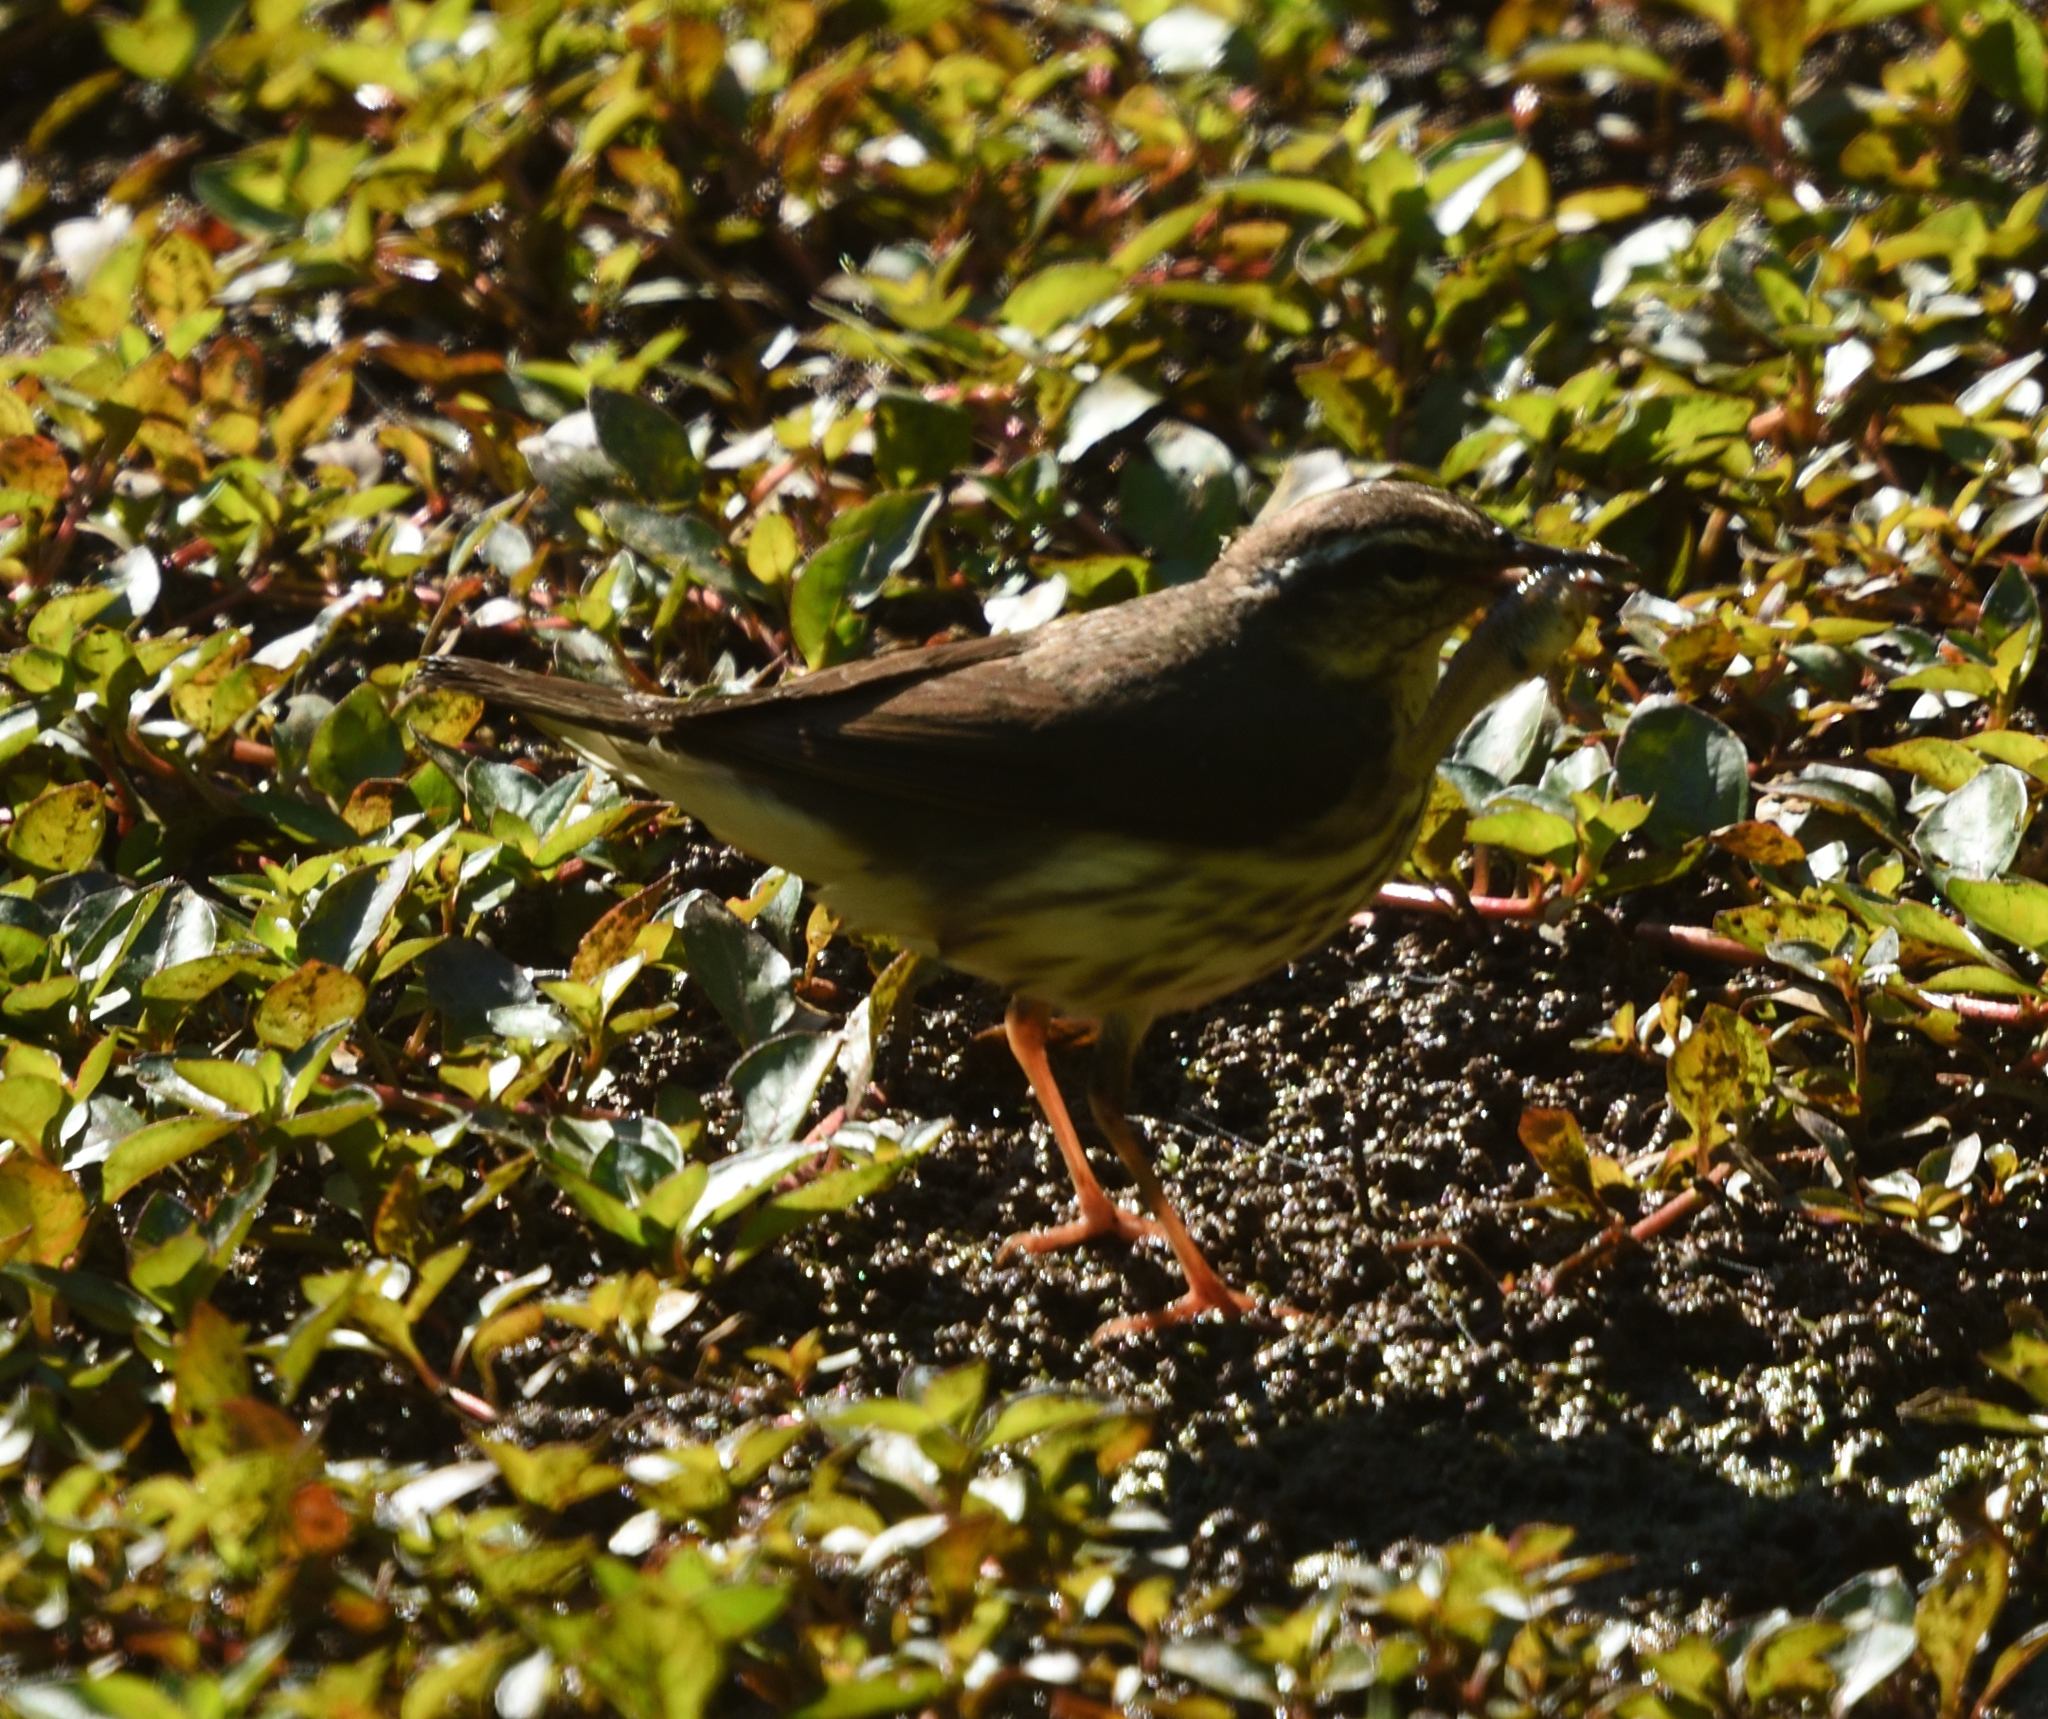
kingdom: Animalia
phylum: Chordata
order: Cyprinodontiformes
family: Poeciliidae
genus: Gambusia
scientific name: Gambusia holbrooki
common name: Eastern mosquitofish
